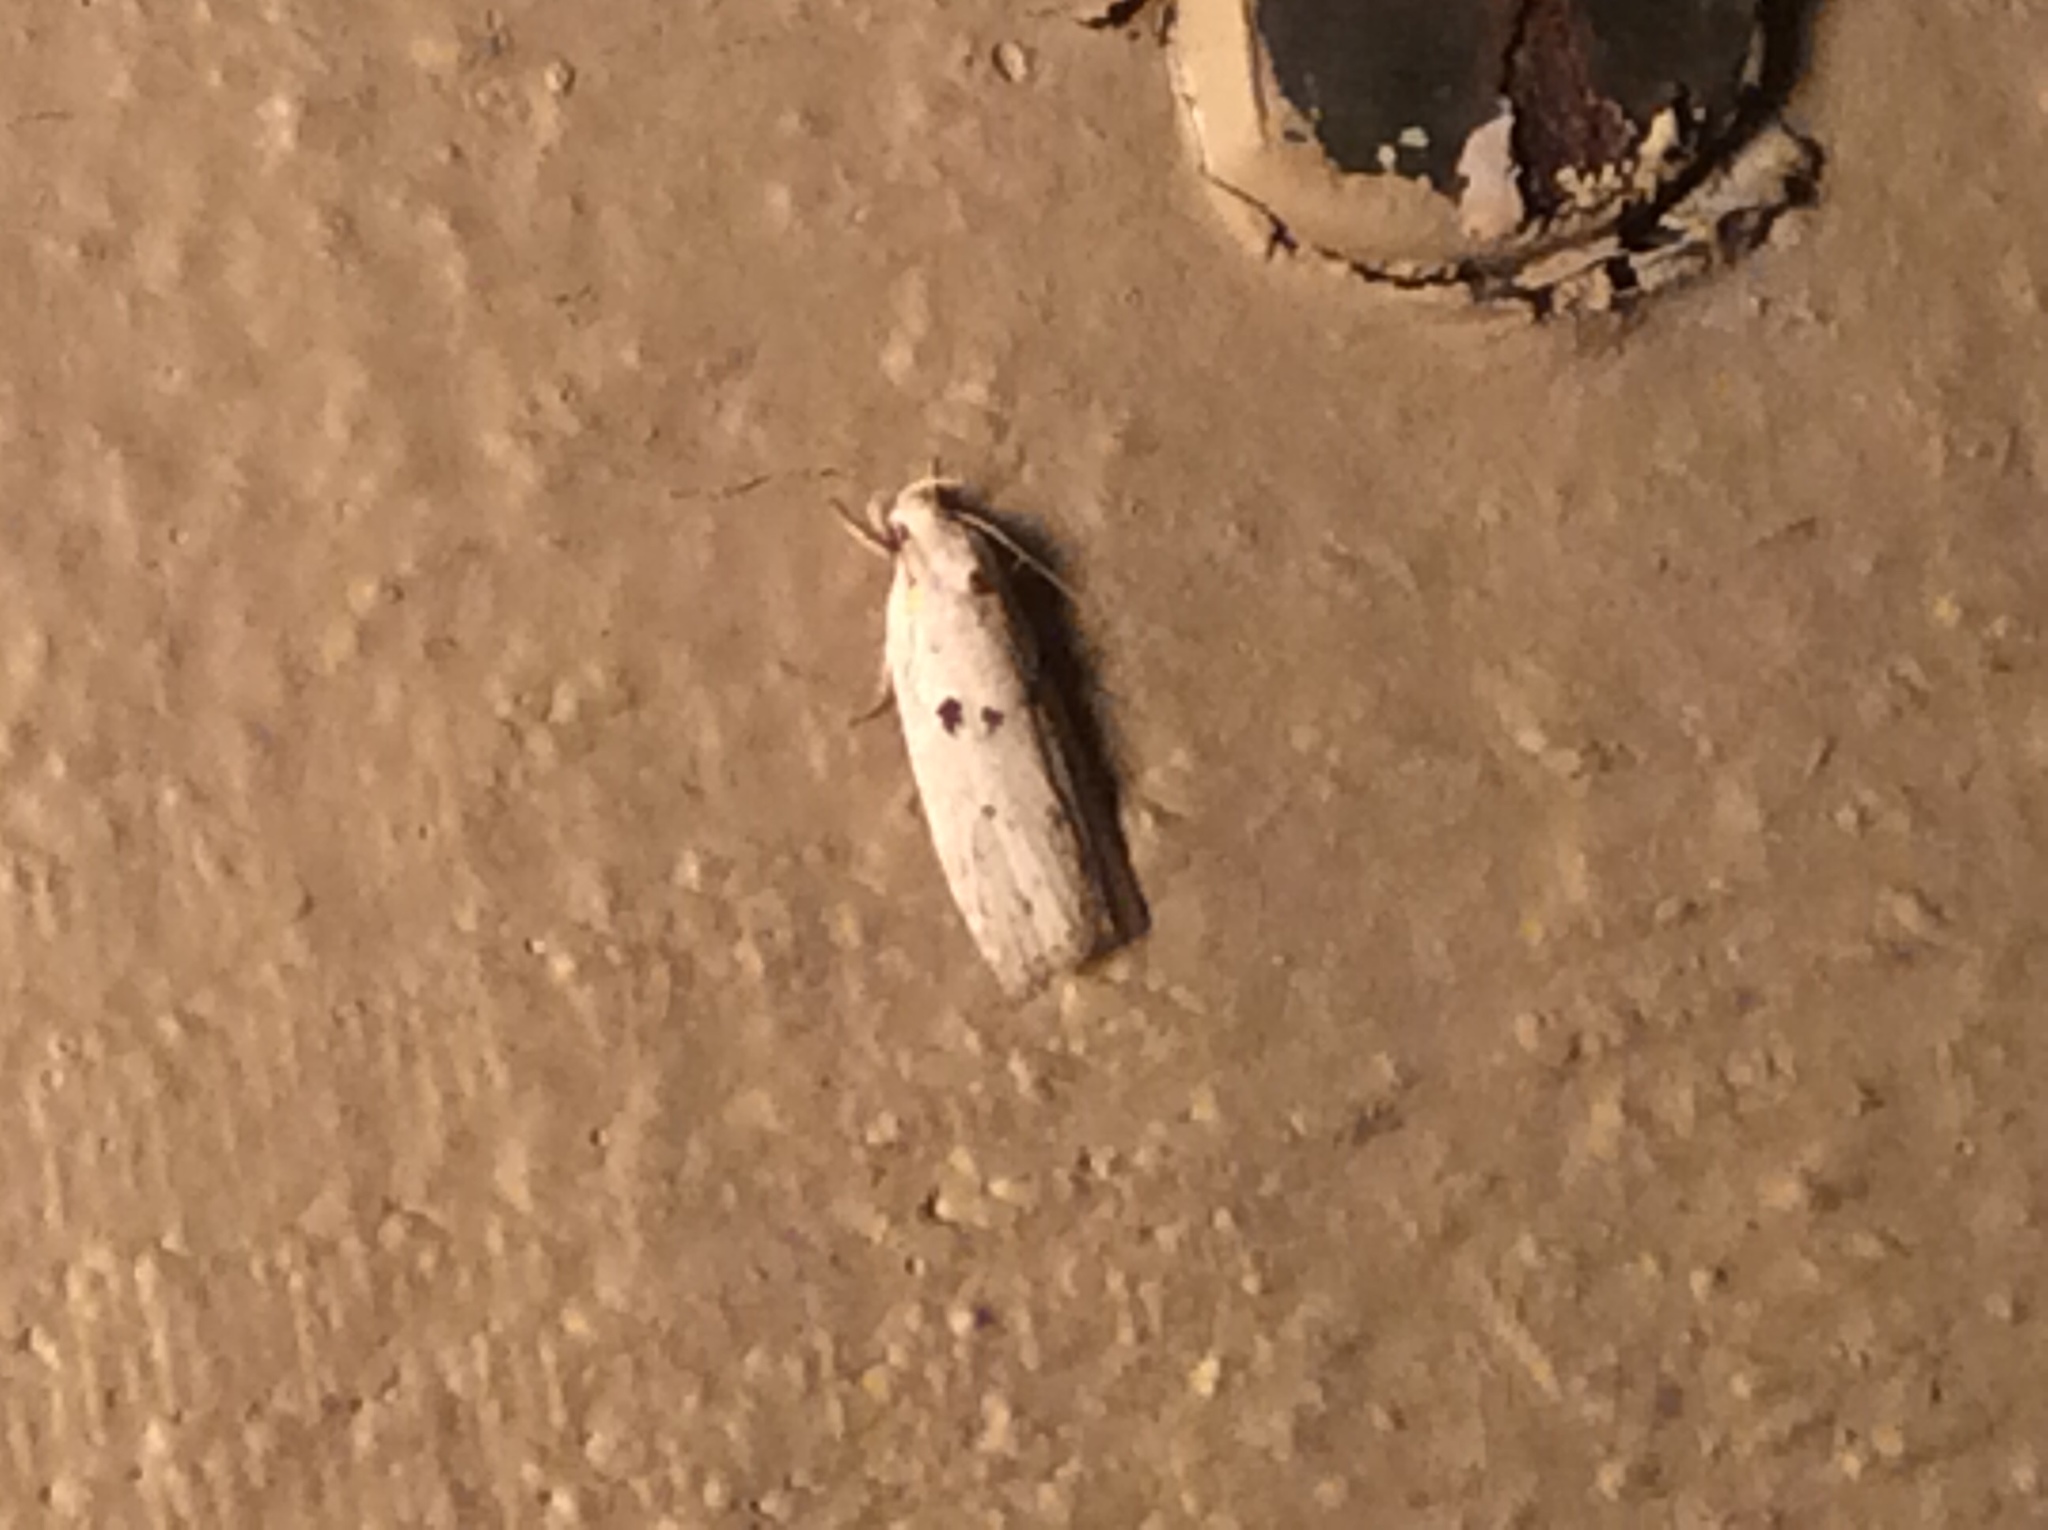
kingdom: Animalia
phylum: Arthropoda
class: Insecta
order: Lepidoptera
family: Peleopodidae
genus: Scythropiodes
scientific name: Scythropiodes issikii
